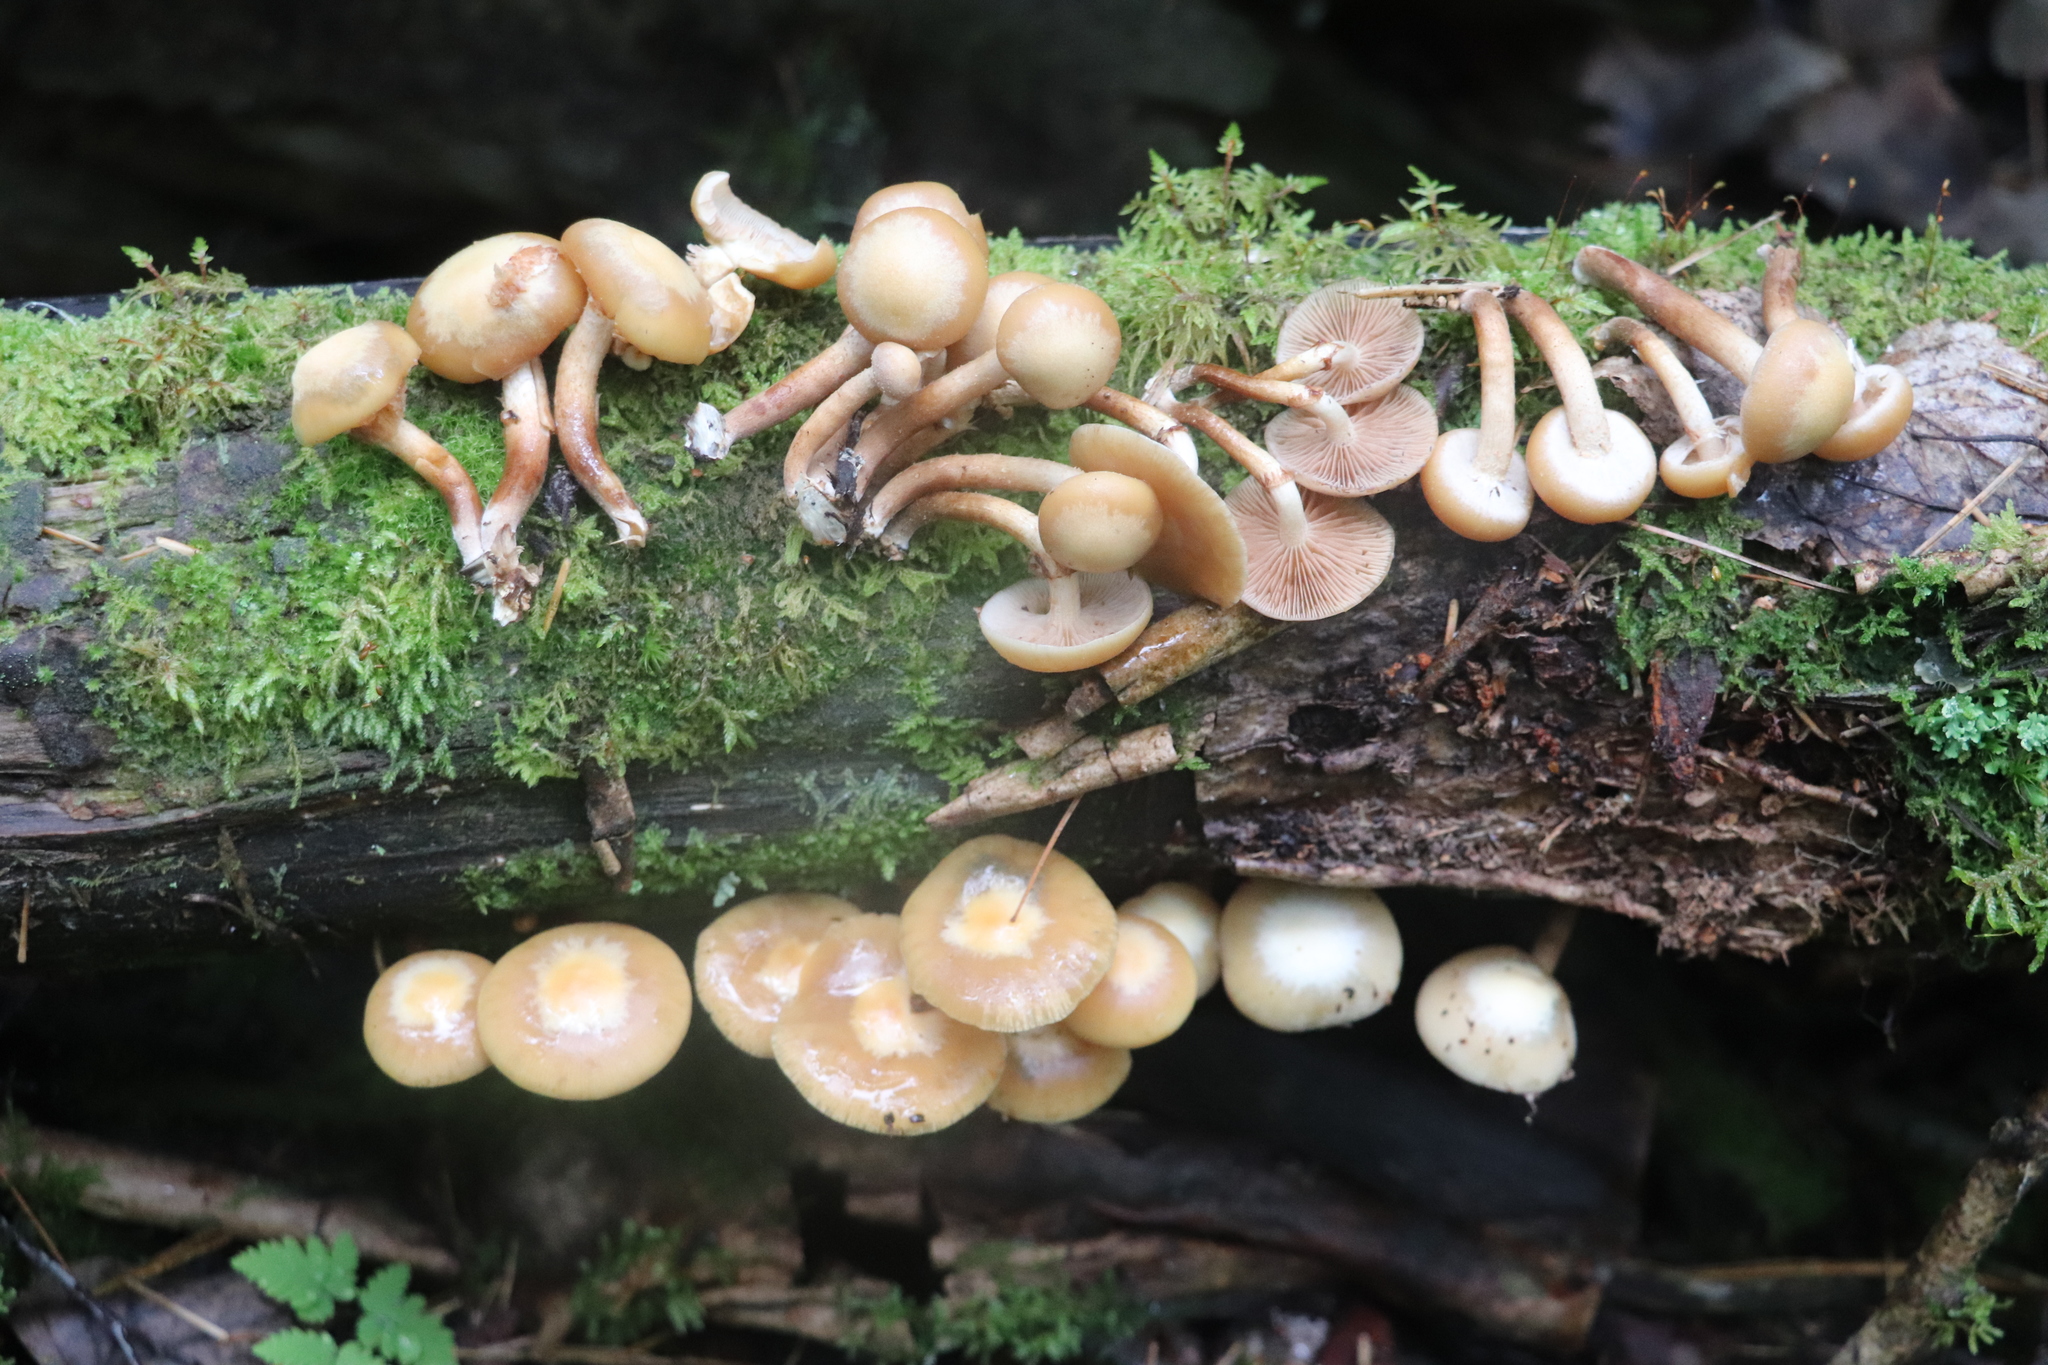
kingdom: Fungi
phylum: Basidiomycota
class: Agaricomycetes
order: Agaricales
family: Strophariaceae
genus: Kuehneromyces
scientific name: Kuehneromyces mutabilis
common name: Sheathed woodtuft
